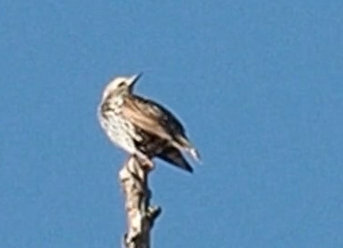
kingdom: Animalia
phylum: Chordata
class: Aves
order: Passeriformes
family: Sturnidae
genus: Sturnus
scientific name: Sturnus vulgaris
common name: Common starling
